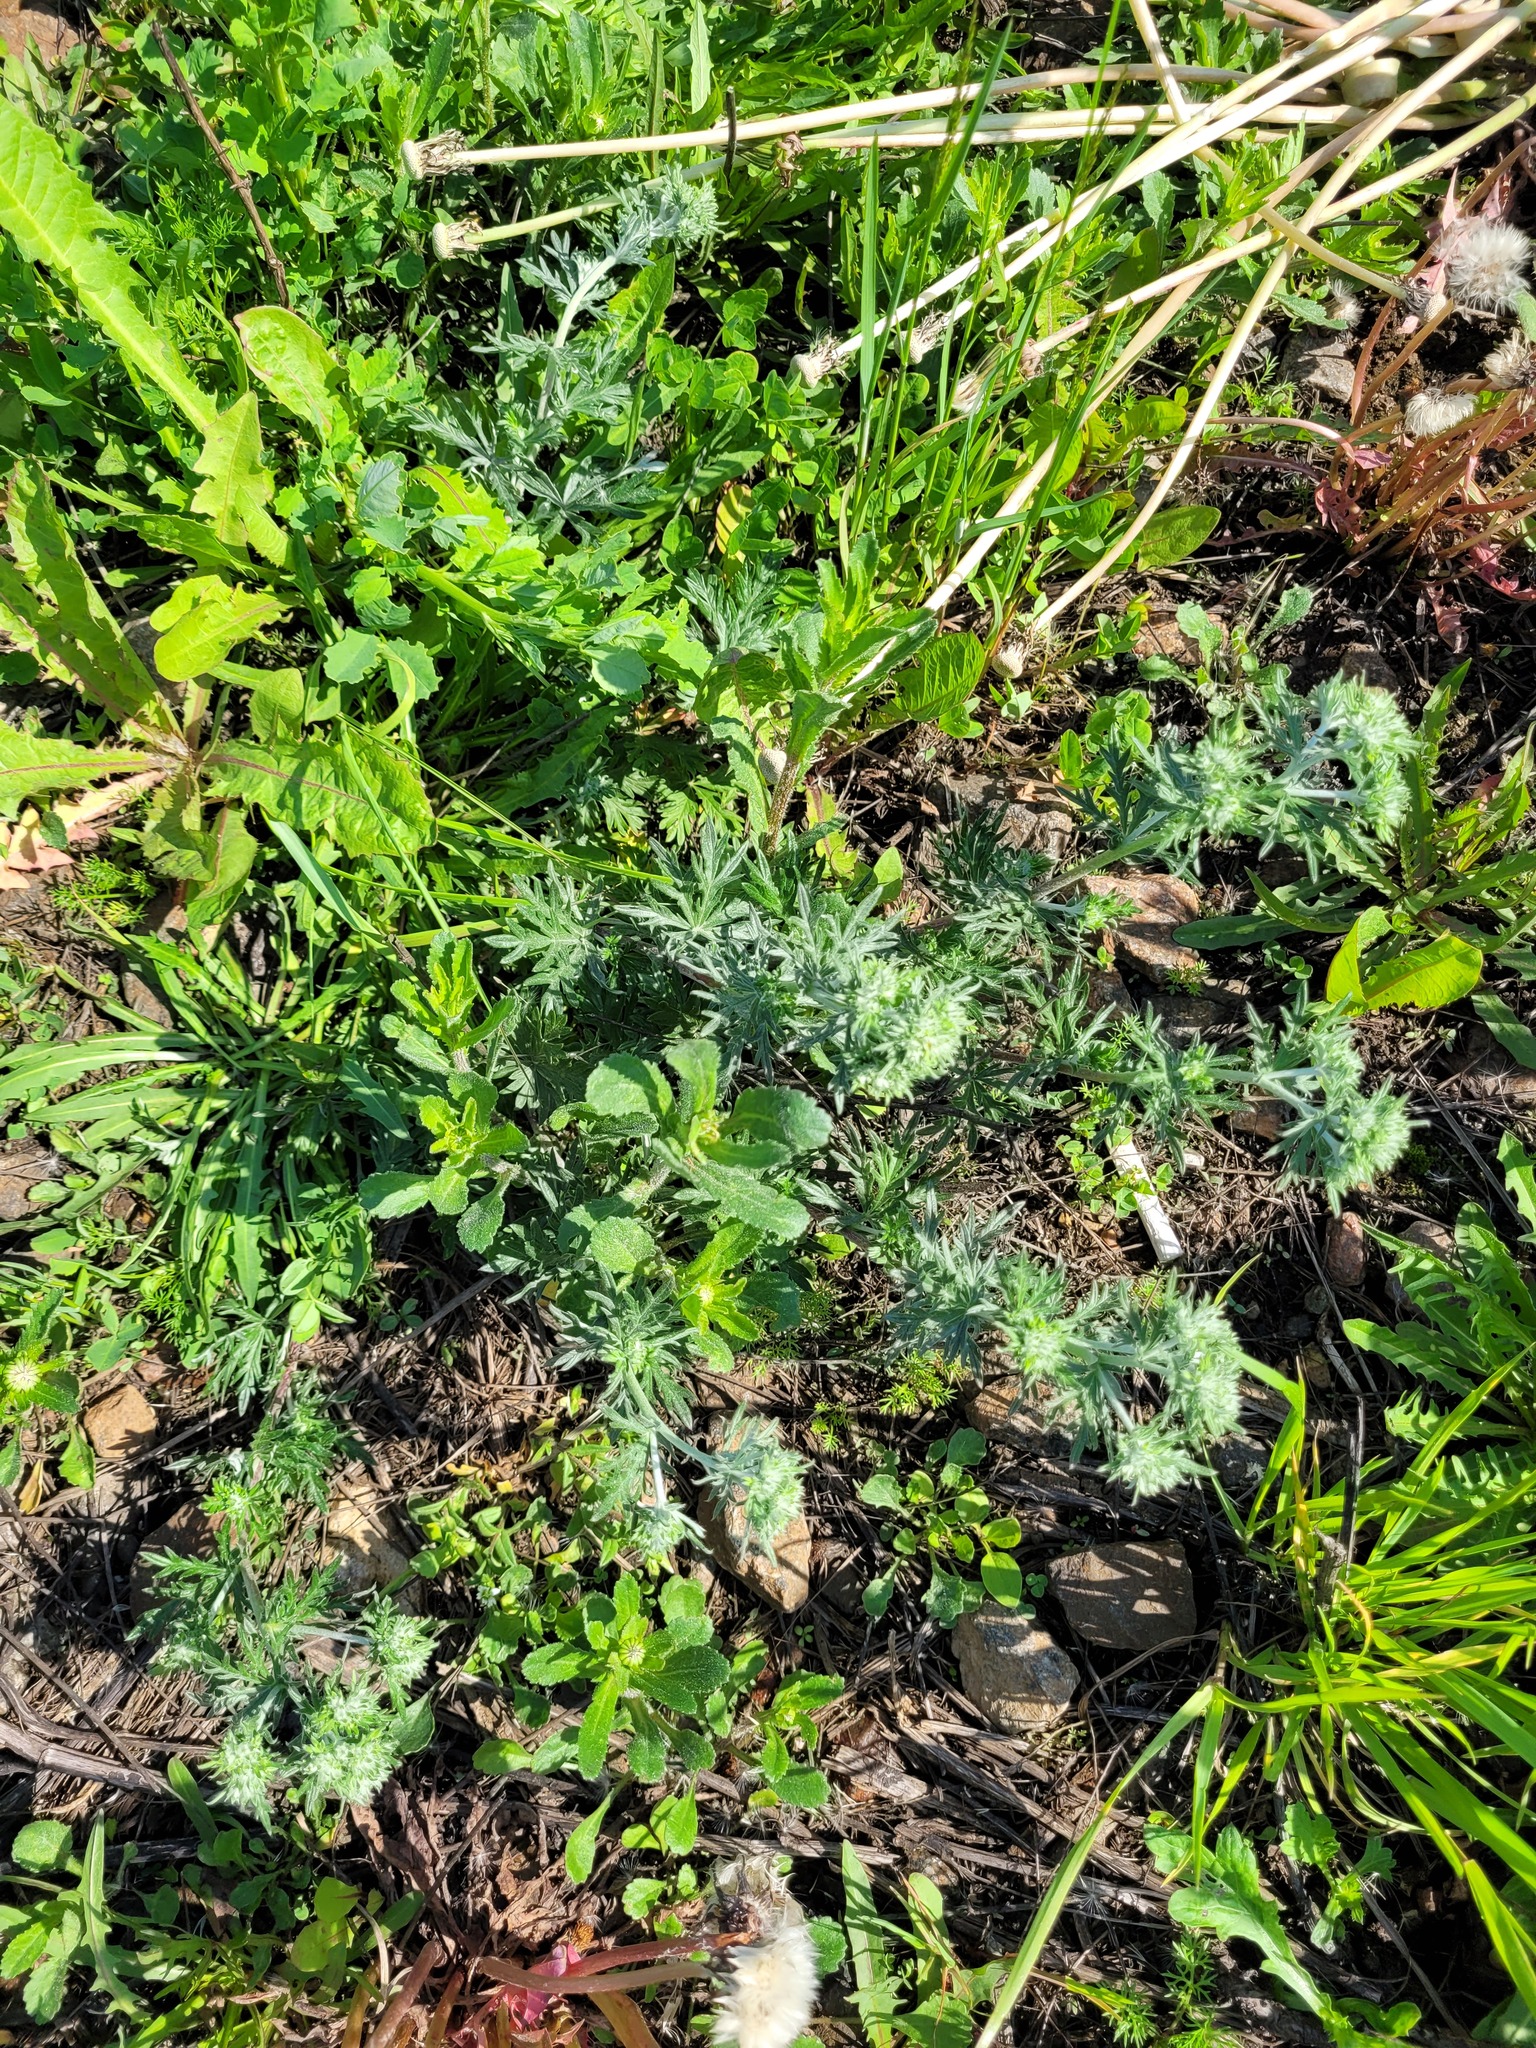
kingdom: Plantae
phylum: Tracheophyta
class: Magnoliopsida
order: Rosales
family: Rosaceae
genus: Potentilla
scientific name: Potentilla argentea
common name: Hoary cinquefoil
